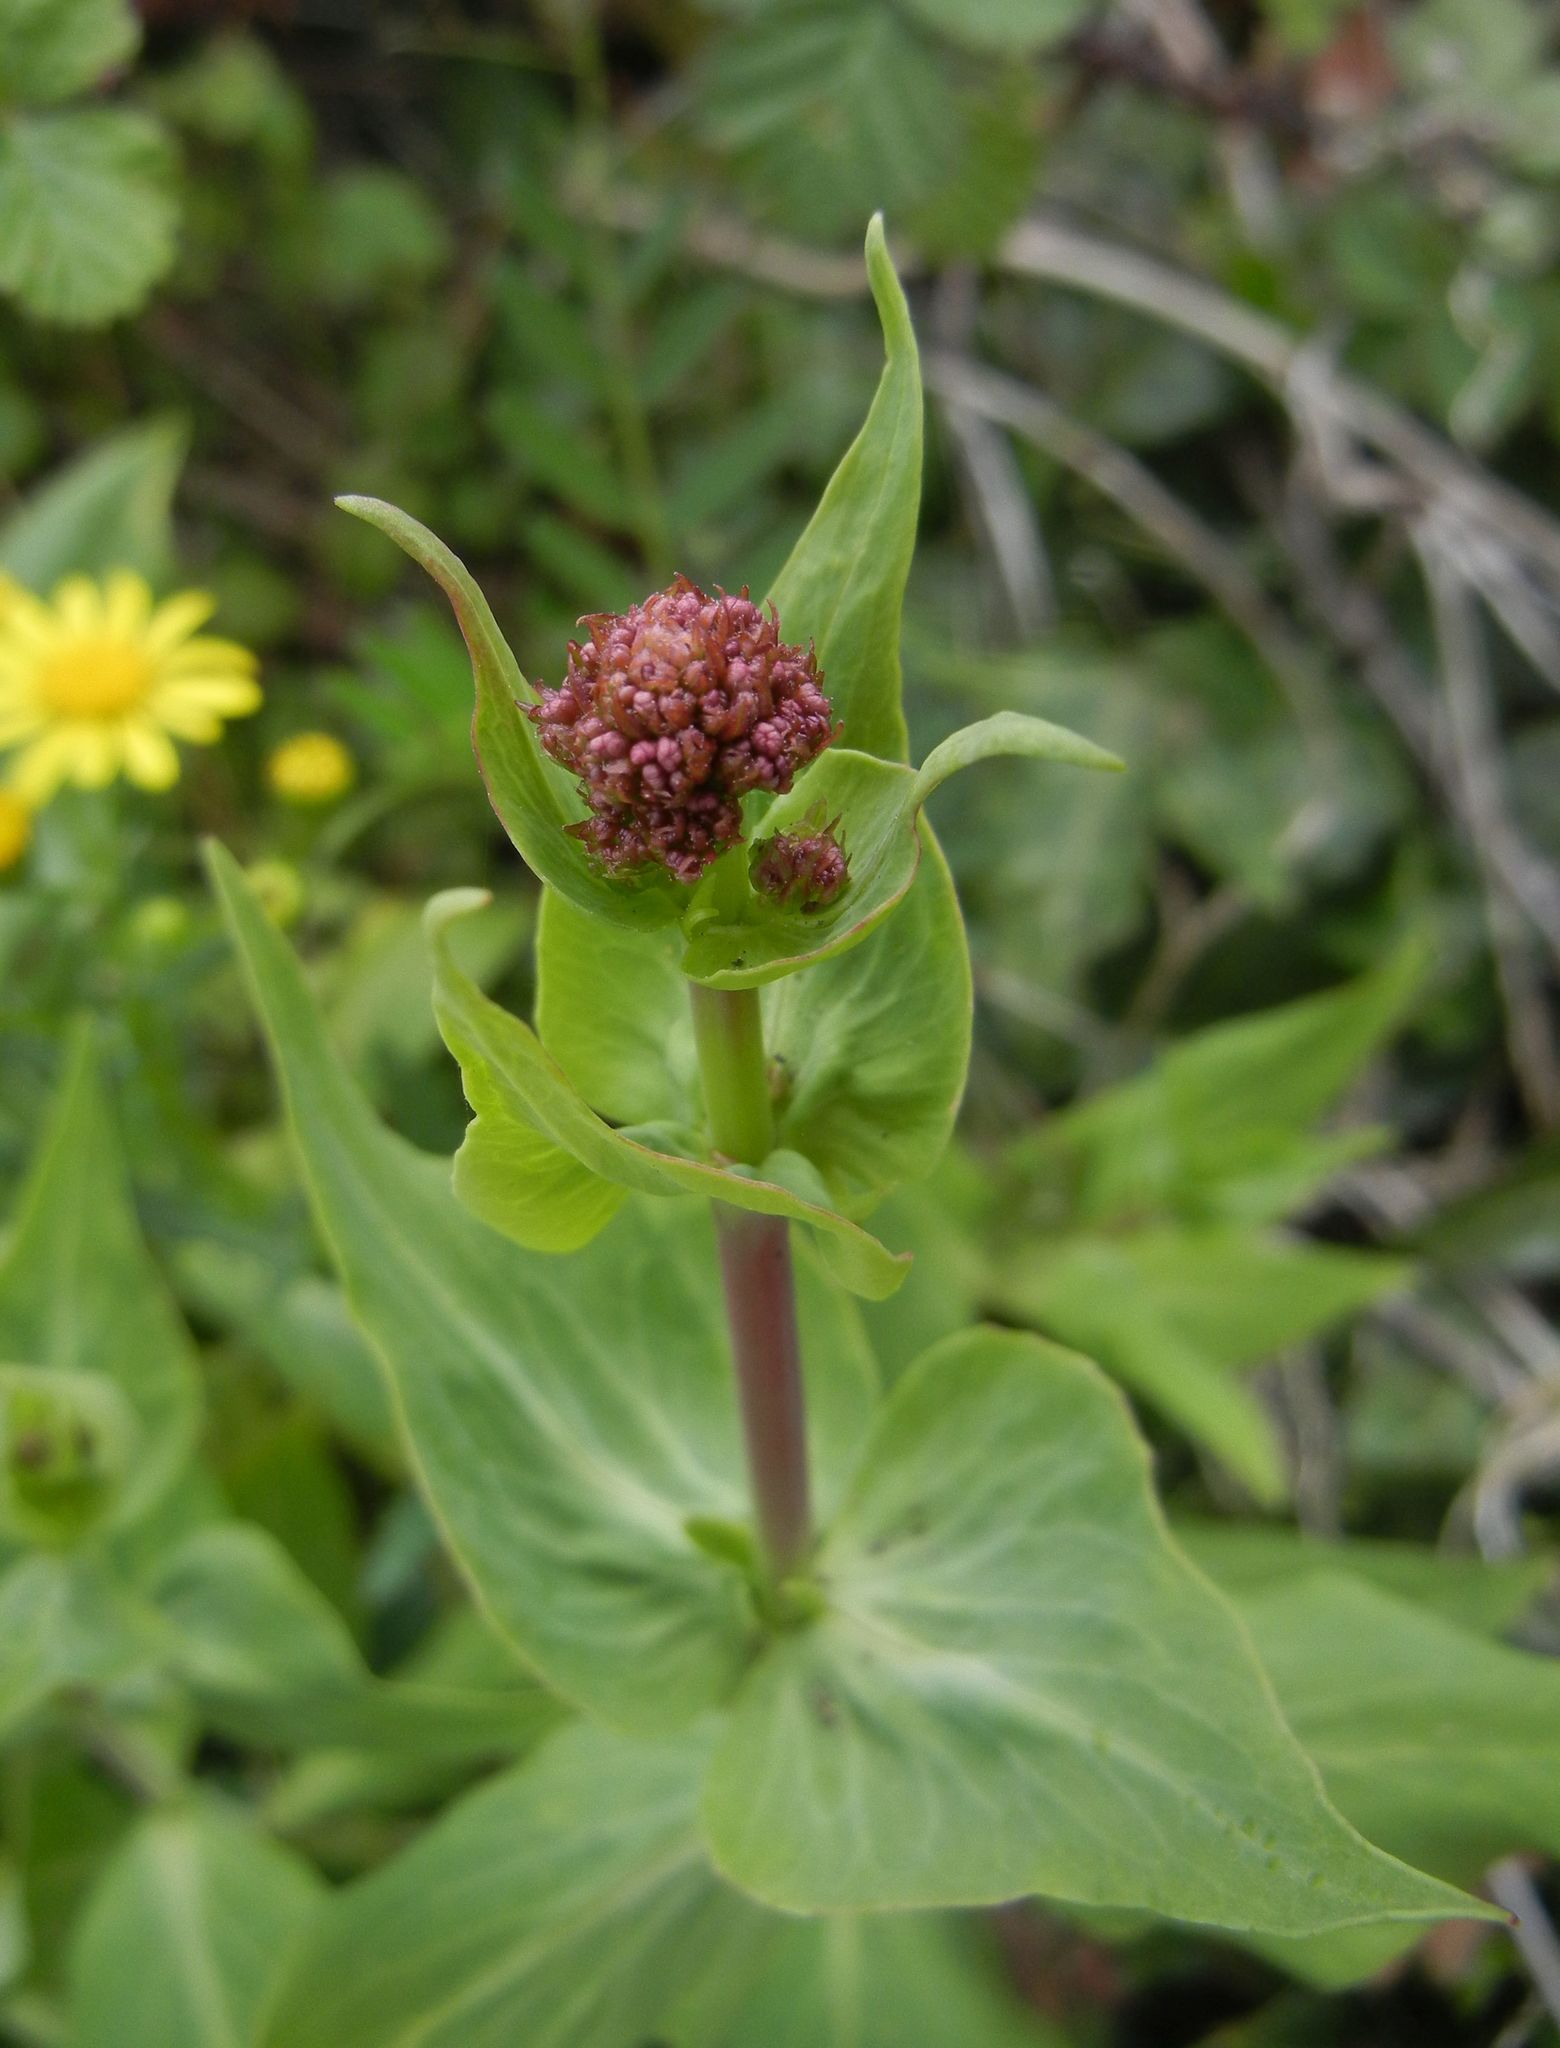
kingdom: Plantae
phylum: Tracheophyta
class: Magnoliopsida
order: Dipsacales
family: Caprifoliaceae
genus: Centranthus
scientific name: Centranthus ruber
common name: Red valerian
